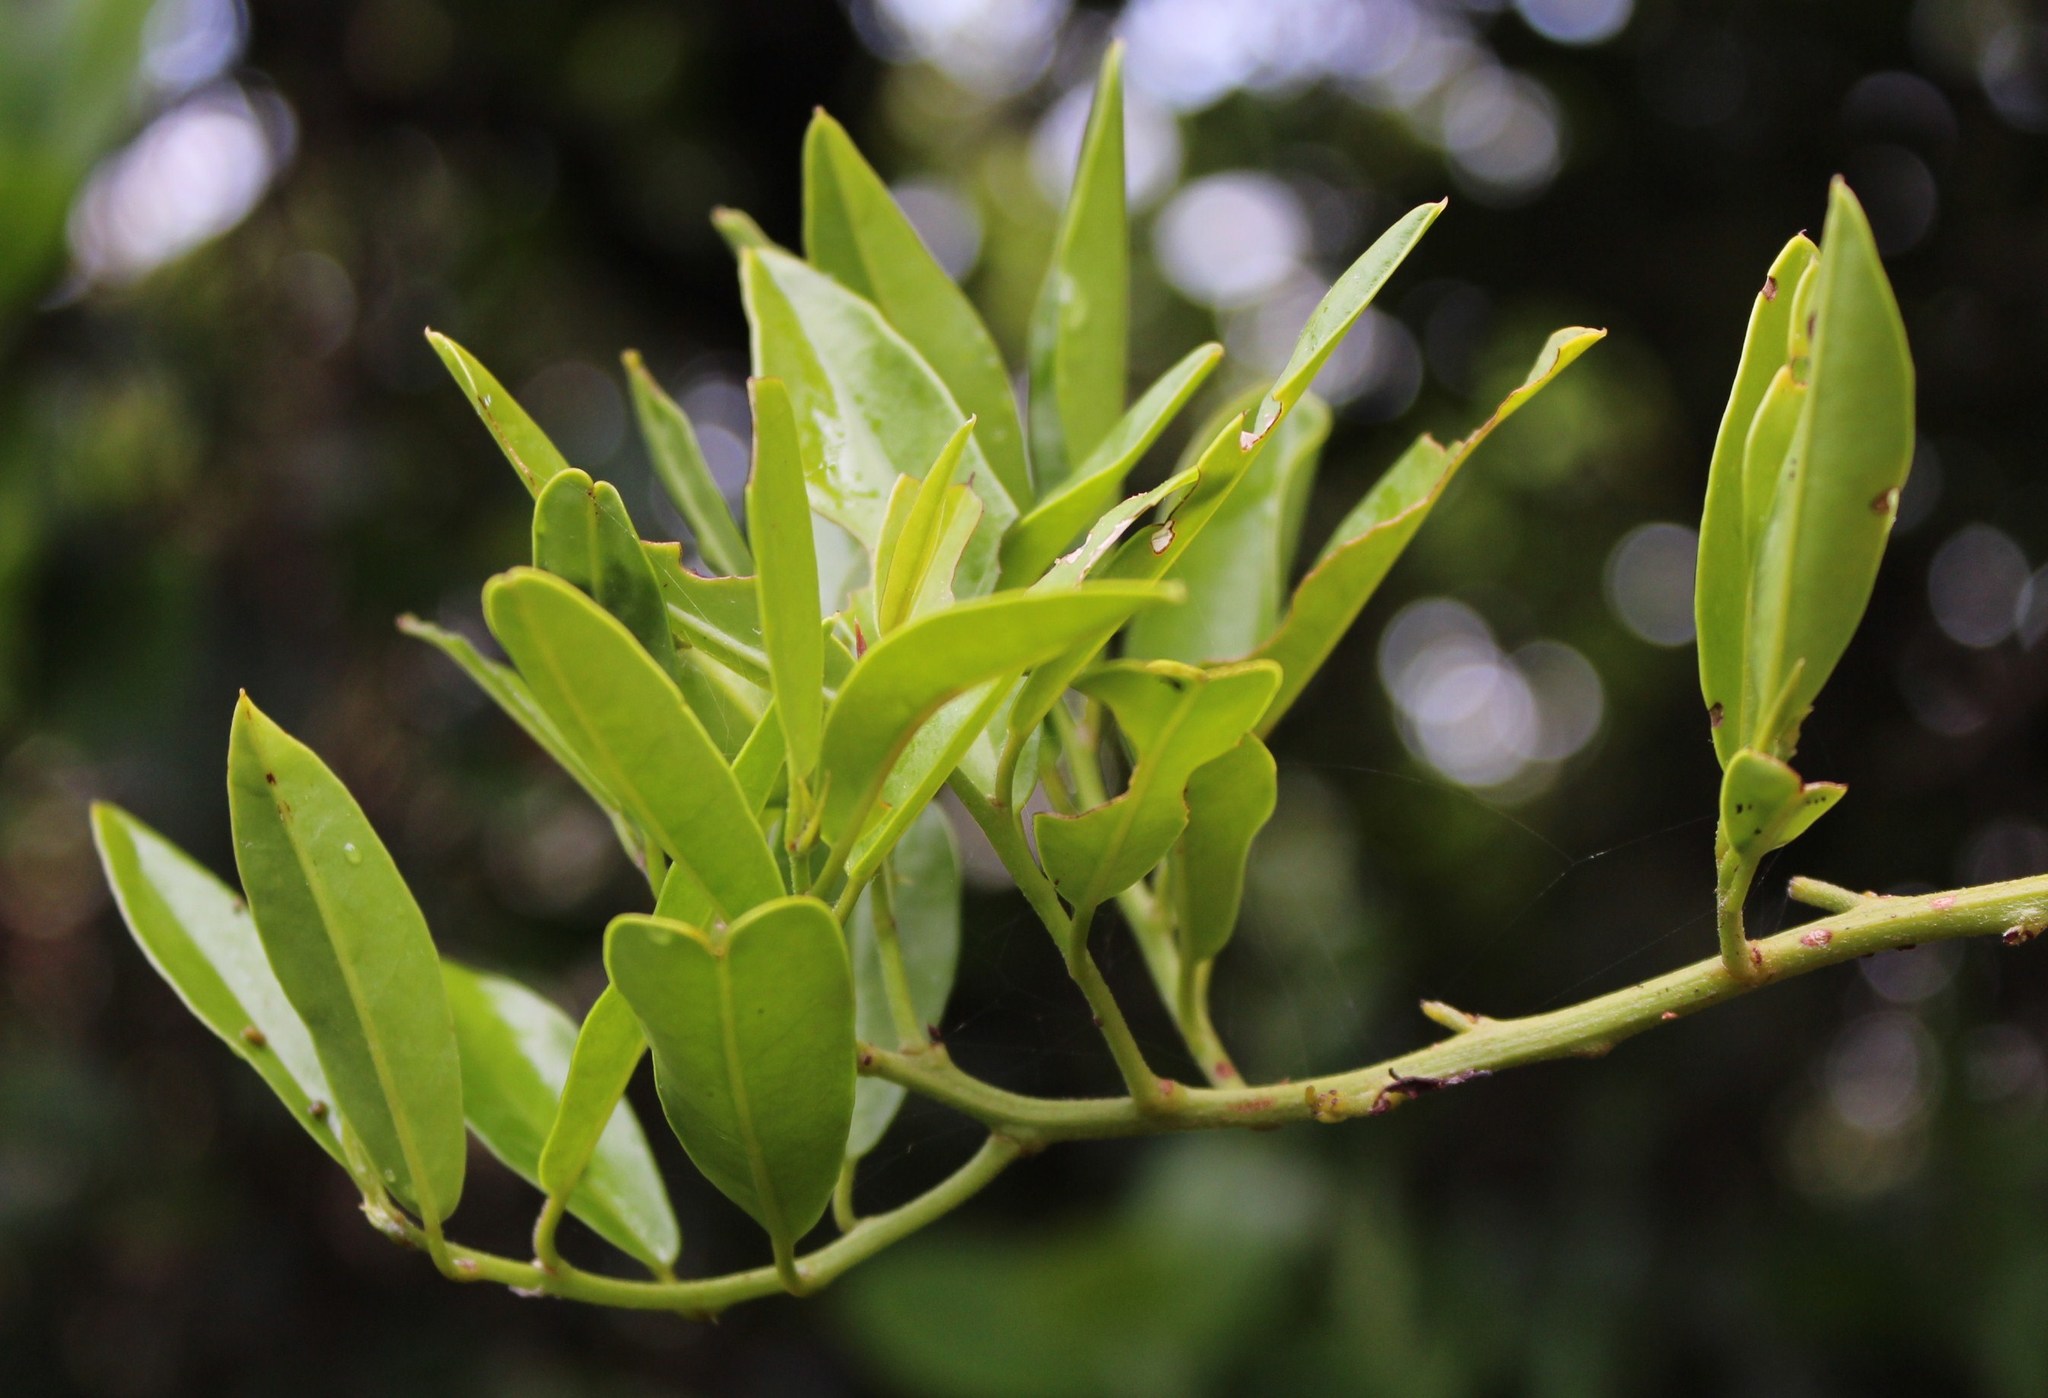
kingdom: Plantae
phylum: Tracheophyta
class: Magnoliopsida
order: Brassicales
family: Capparaceae
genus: Capparis
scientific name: Capparis sepiaria
